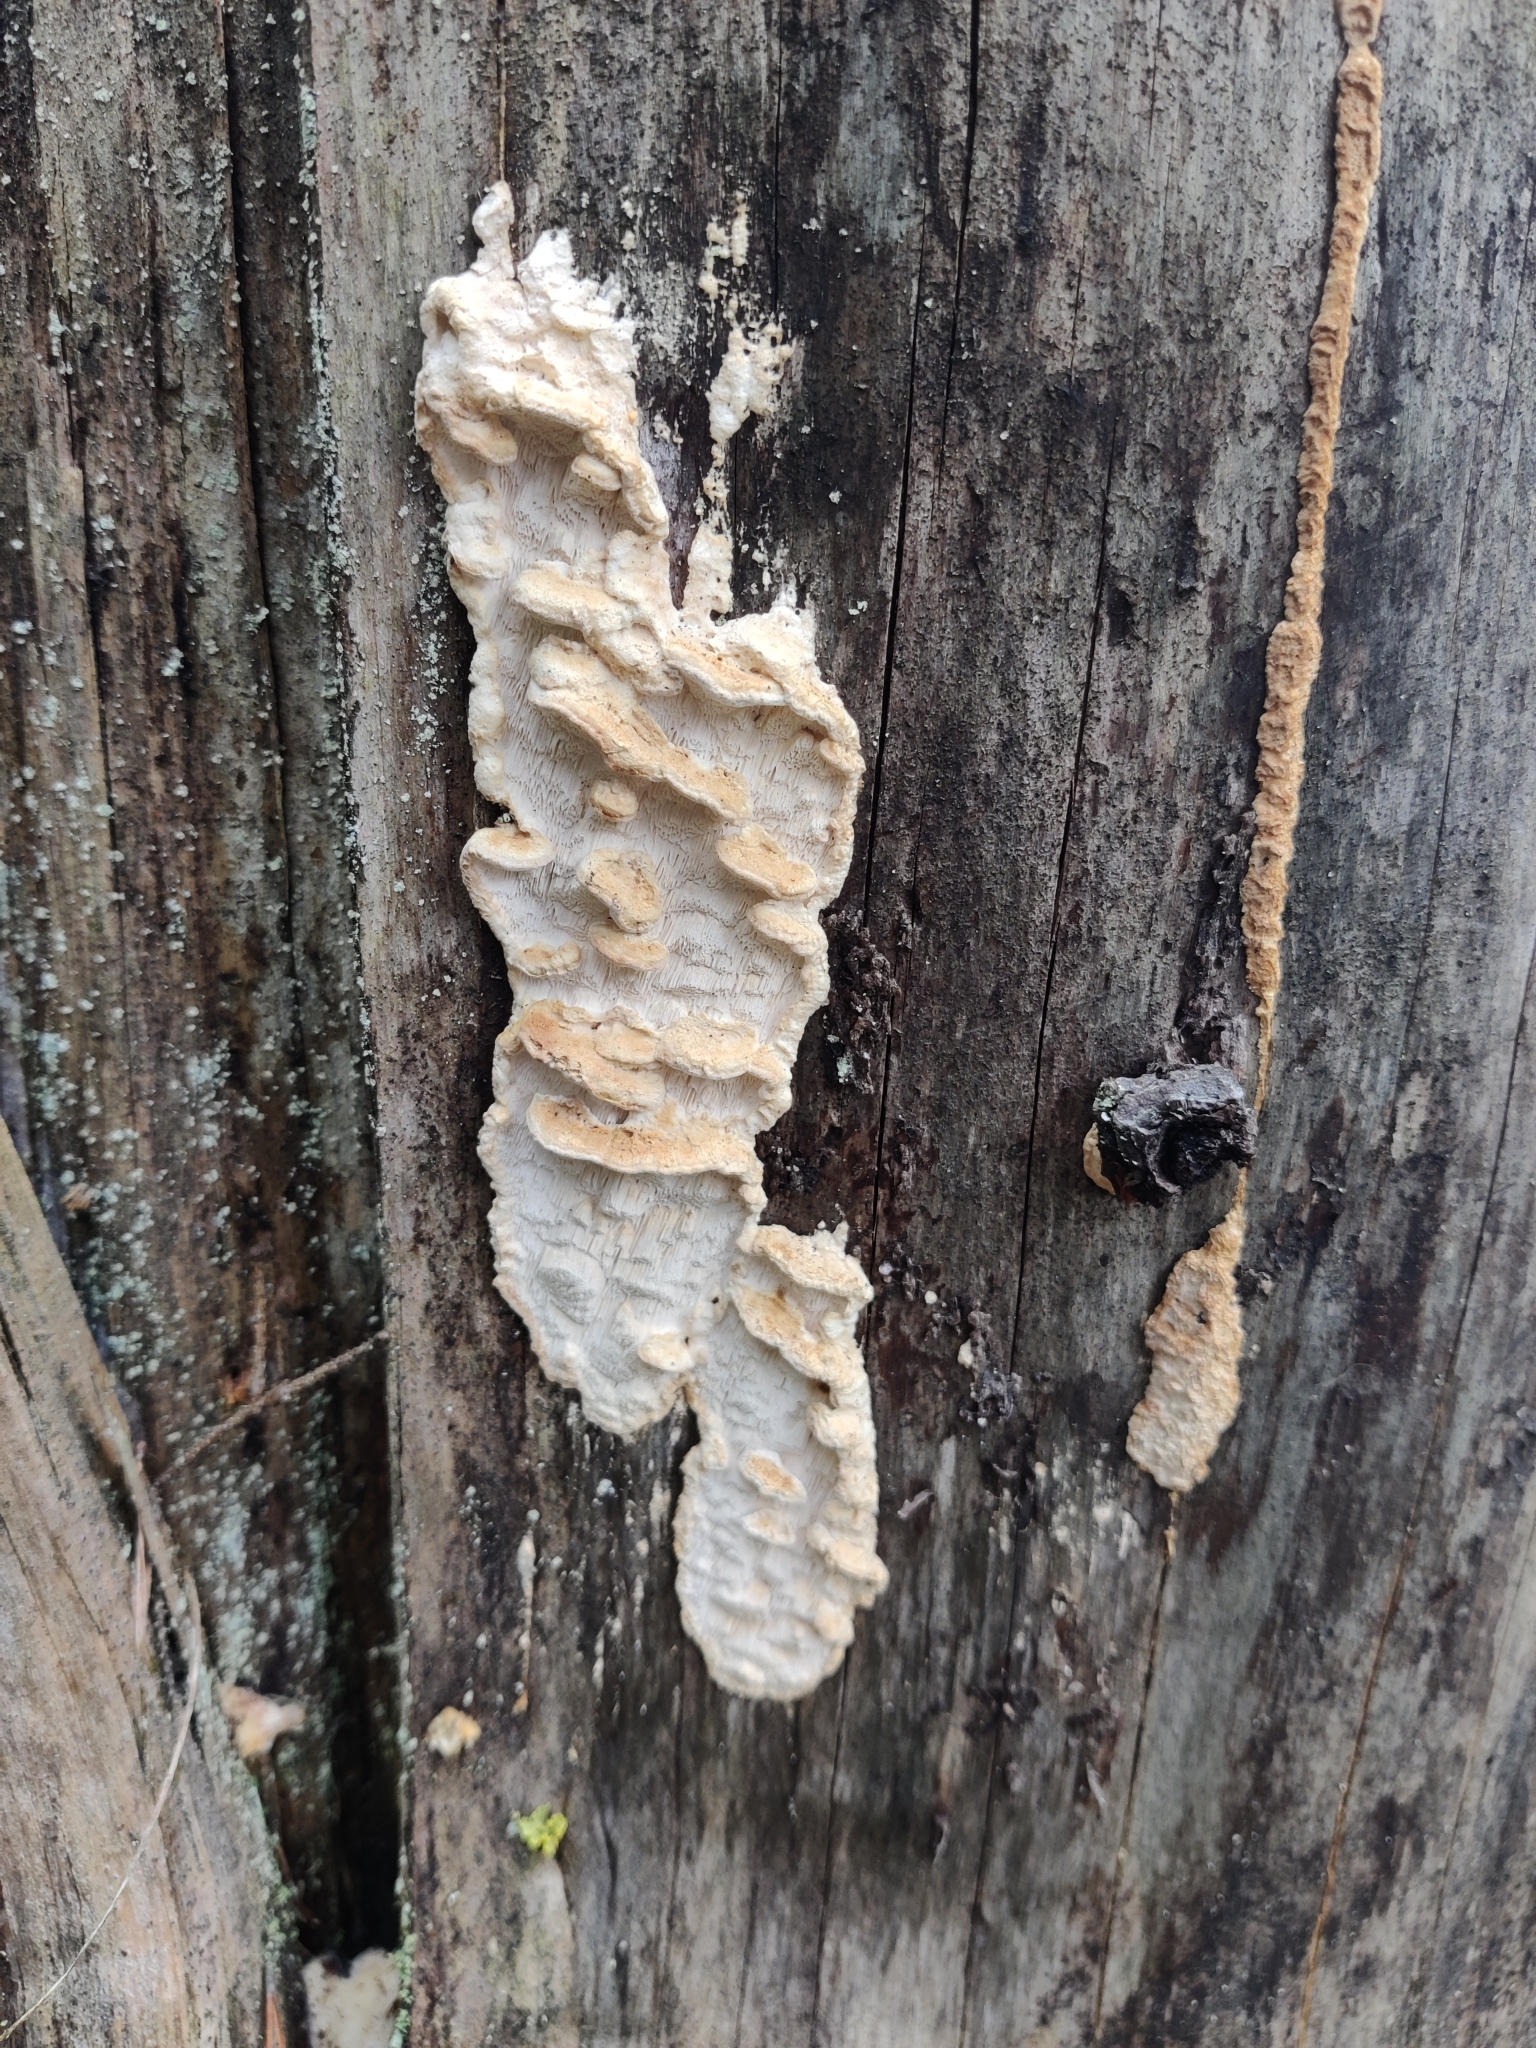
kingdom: Fungi
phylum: Basidiomycota
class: Agaricomycetes
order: Polyporales
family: Fomitopsidaceae
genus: Neoantrodia
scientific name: Neoantrodia serialis
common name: Serried porecrust
